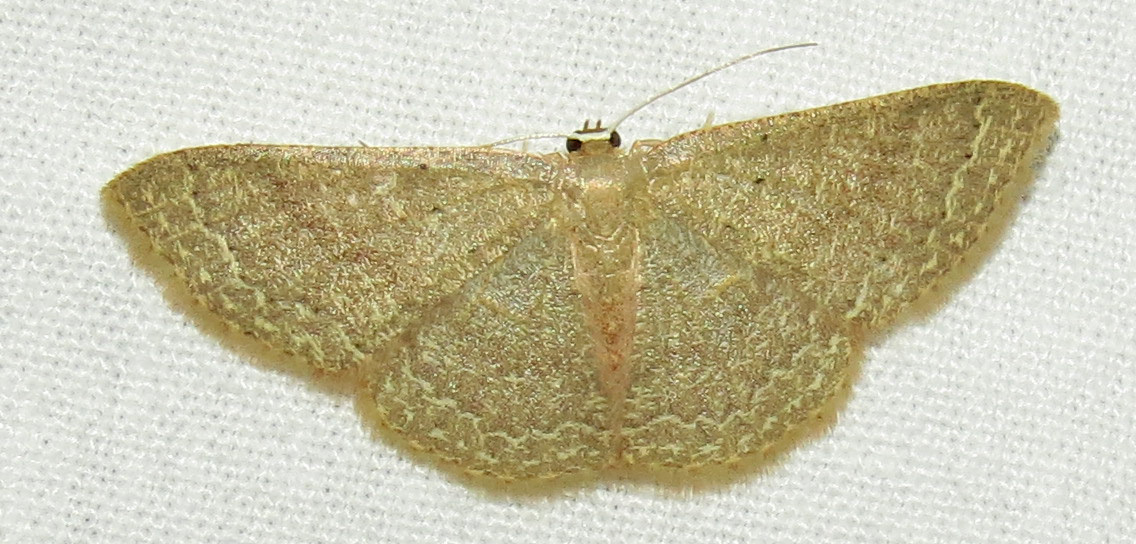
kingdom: Animalia
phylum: Arthropoda
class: Insecta
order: Lepidoptera
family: Geometridae
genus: Pleuroprucha
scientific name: Pleuroprucha insulsaria
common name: Common tan wave
